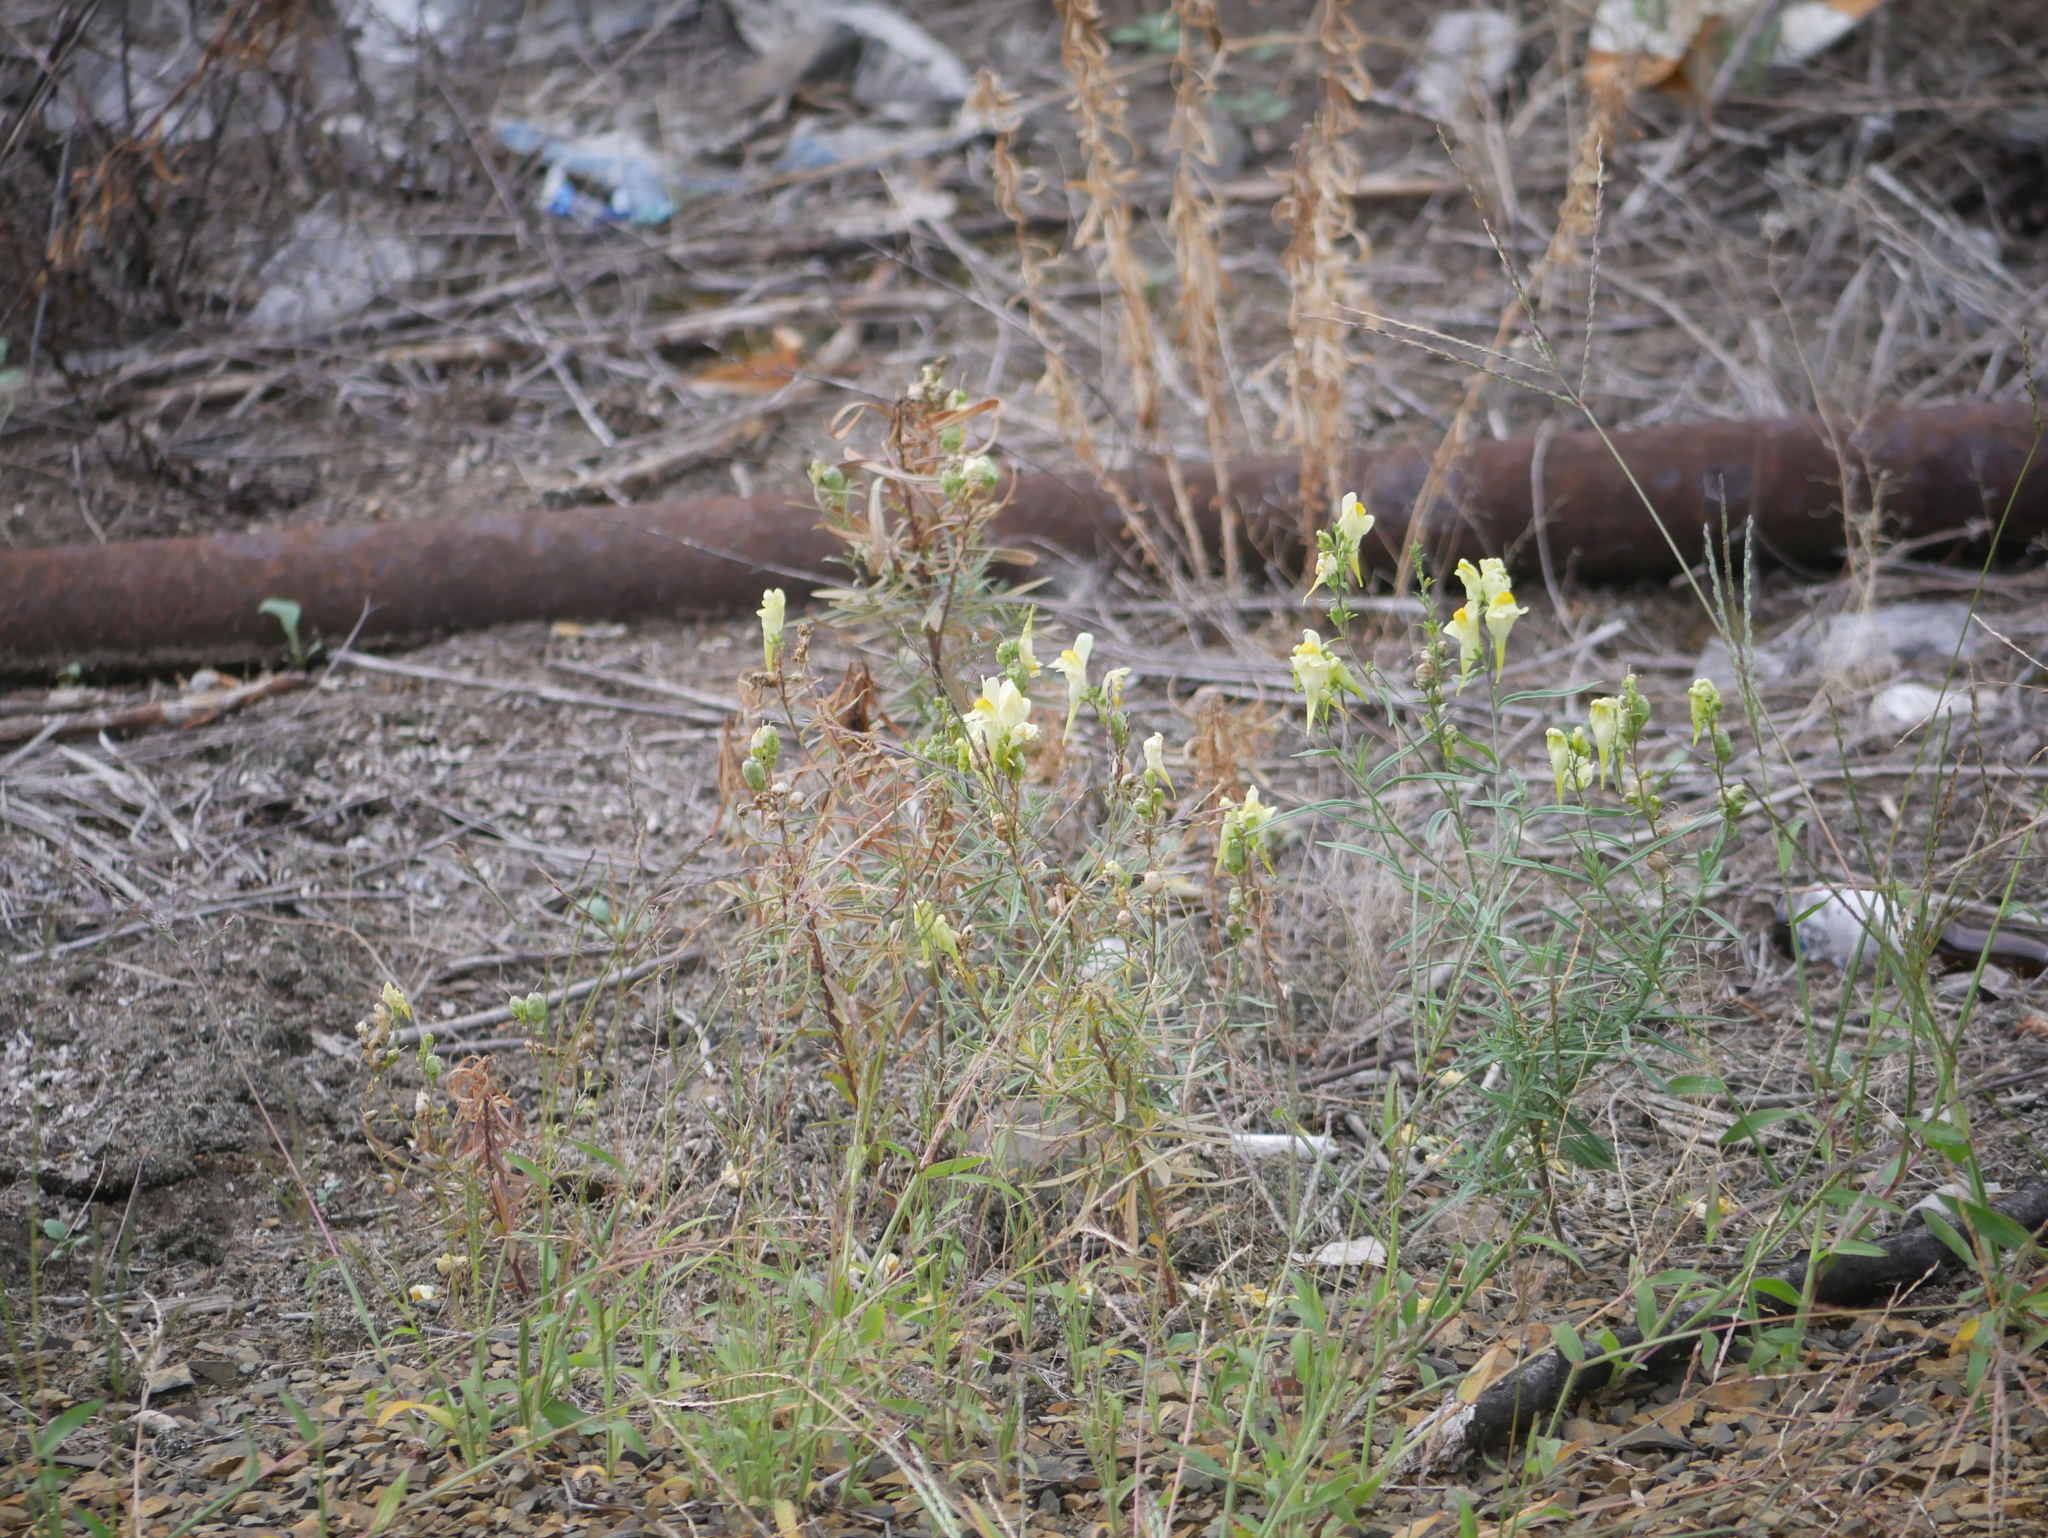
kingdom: Plantae
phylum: Tracheophyta
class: Magnoliopsida
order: Lamiales
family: Plantaginaceae
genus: Linaria
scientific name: Linaria vulgaris
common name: Butter and eggs
